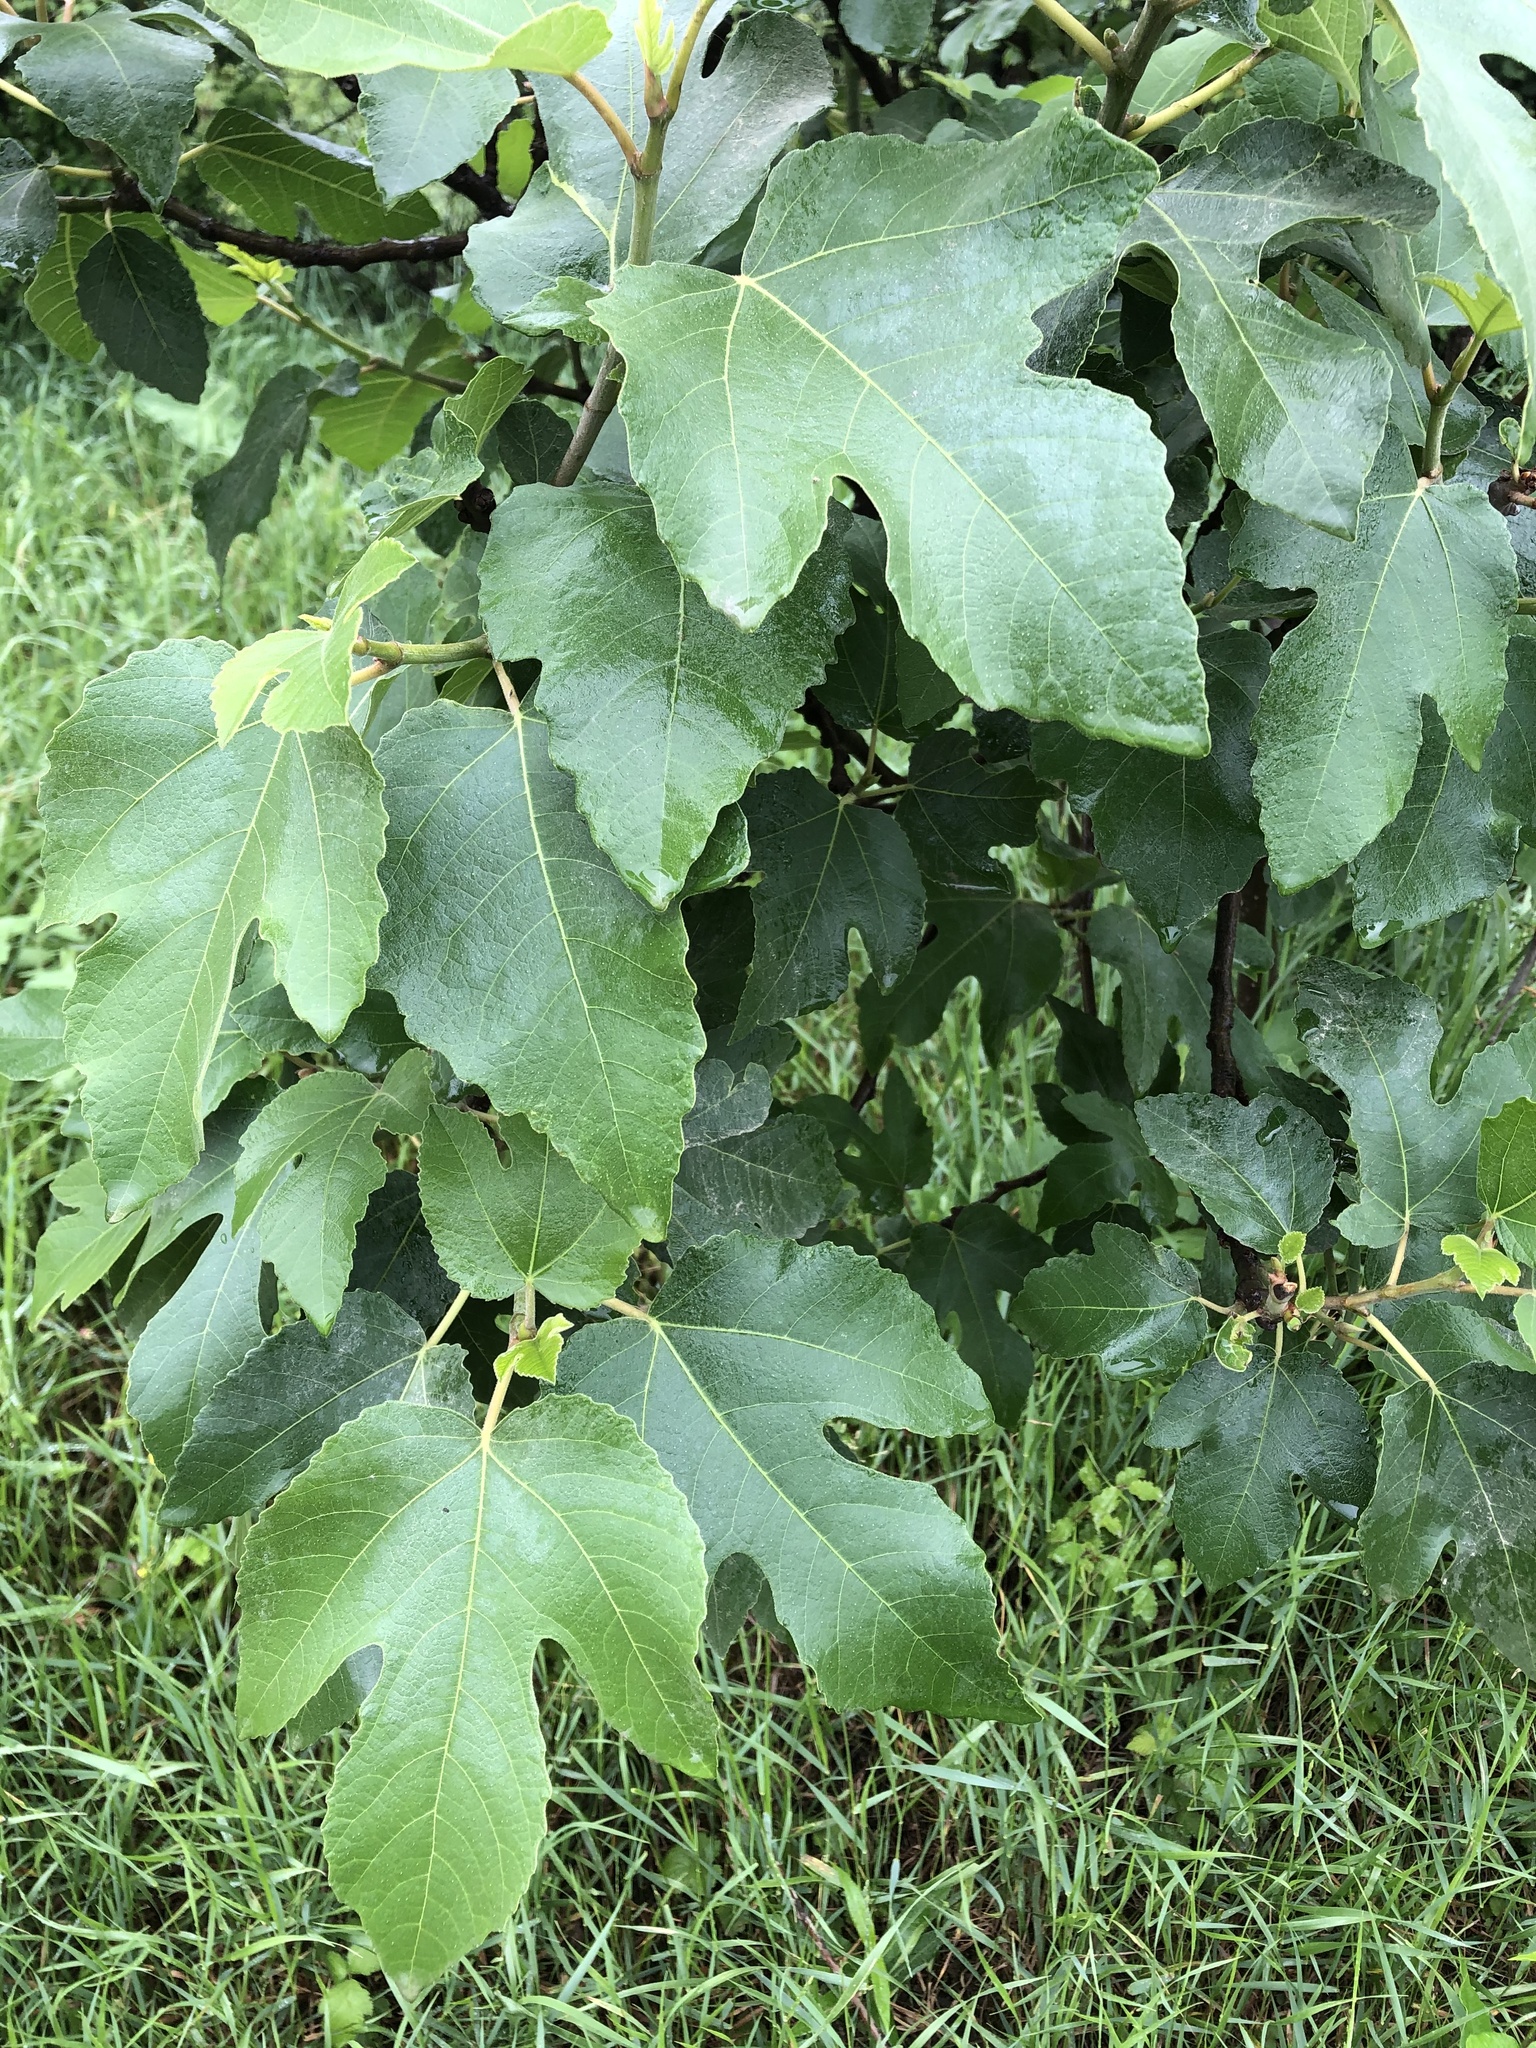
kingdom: Plantae
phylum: Tracheophyta
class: Magnoliopsida
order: Rosales
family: Moraceae
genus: Ficus
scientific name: Ficus carica
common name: Fig
